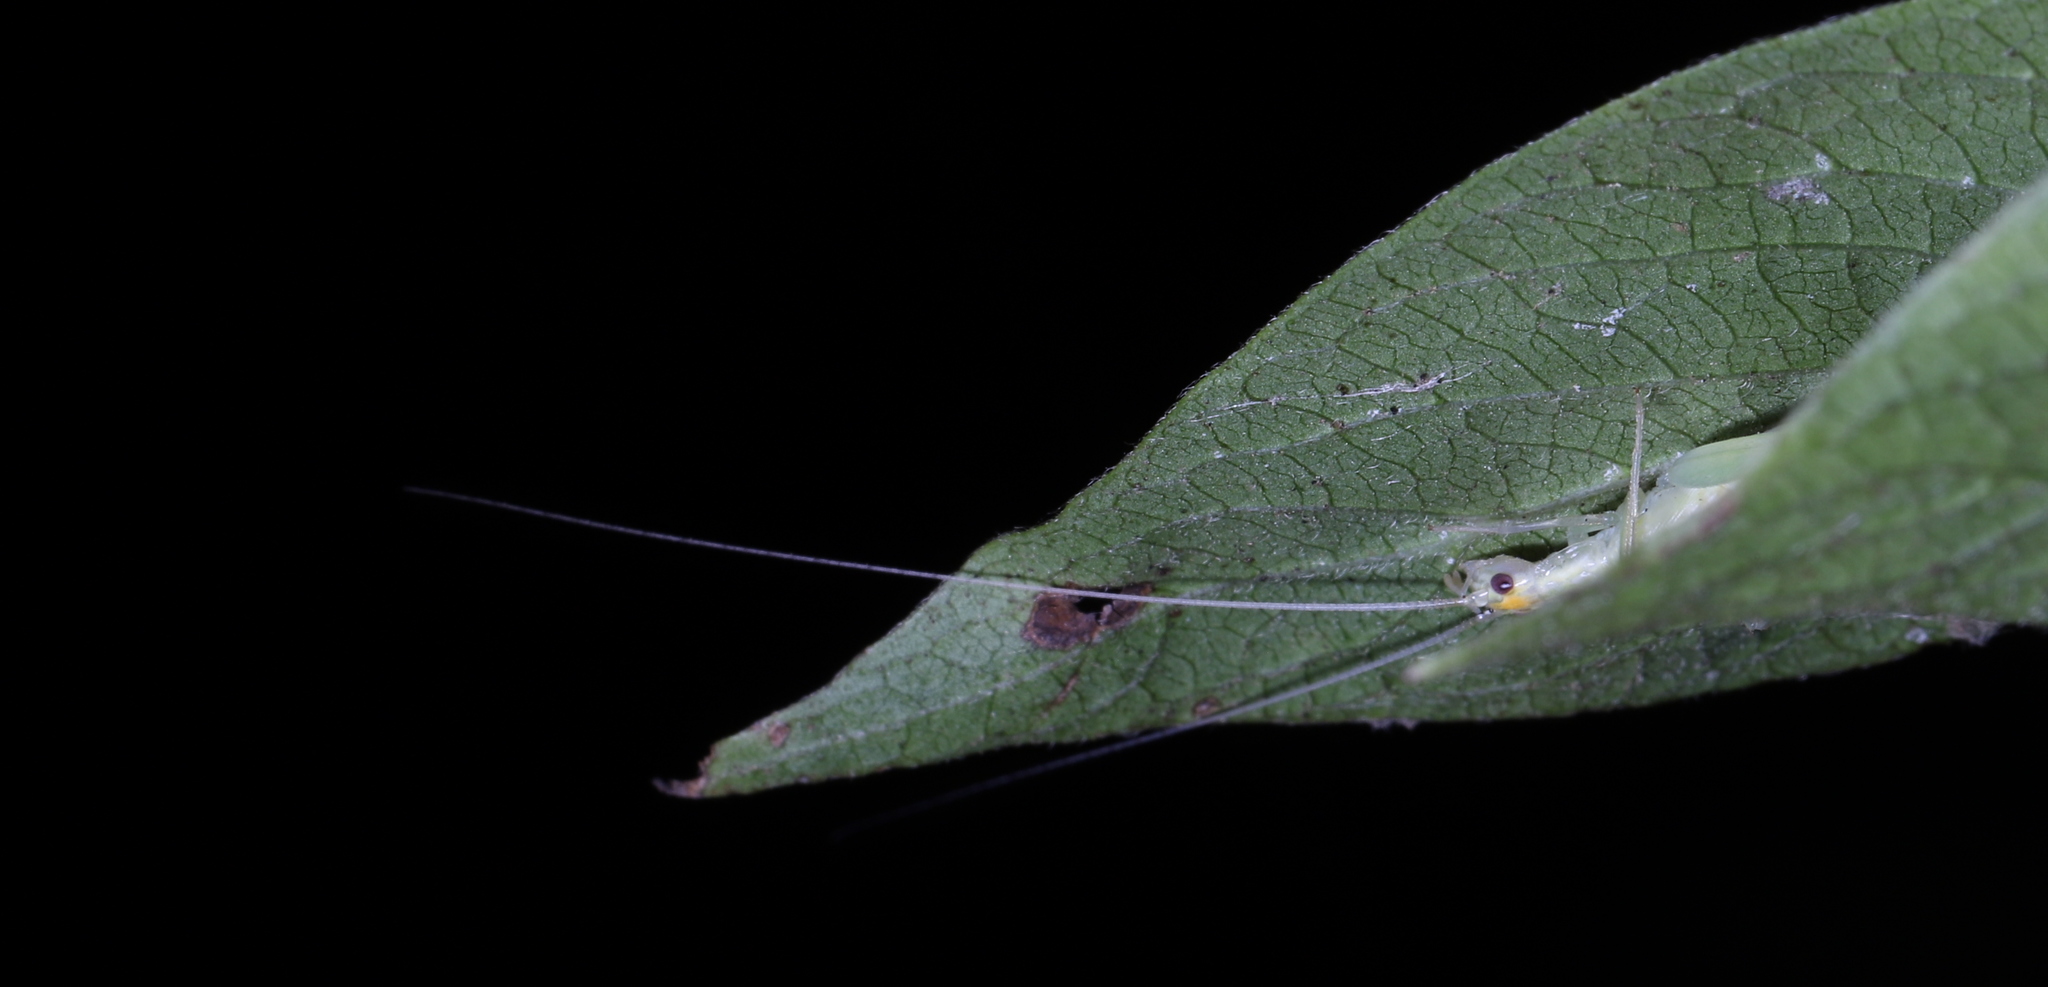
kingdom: Animalia
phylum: Arthropoda
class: Insecta
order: Orthoptera
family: Gryllidae
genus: Oecanthus
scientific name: Oecanthus niveus
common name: Narrow-winged tree cricket
